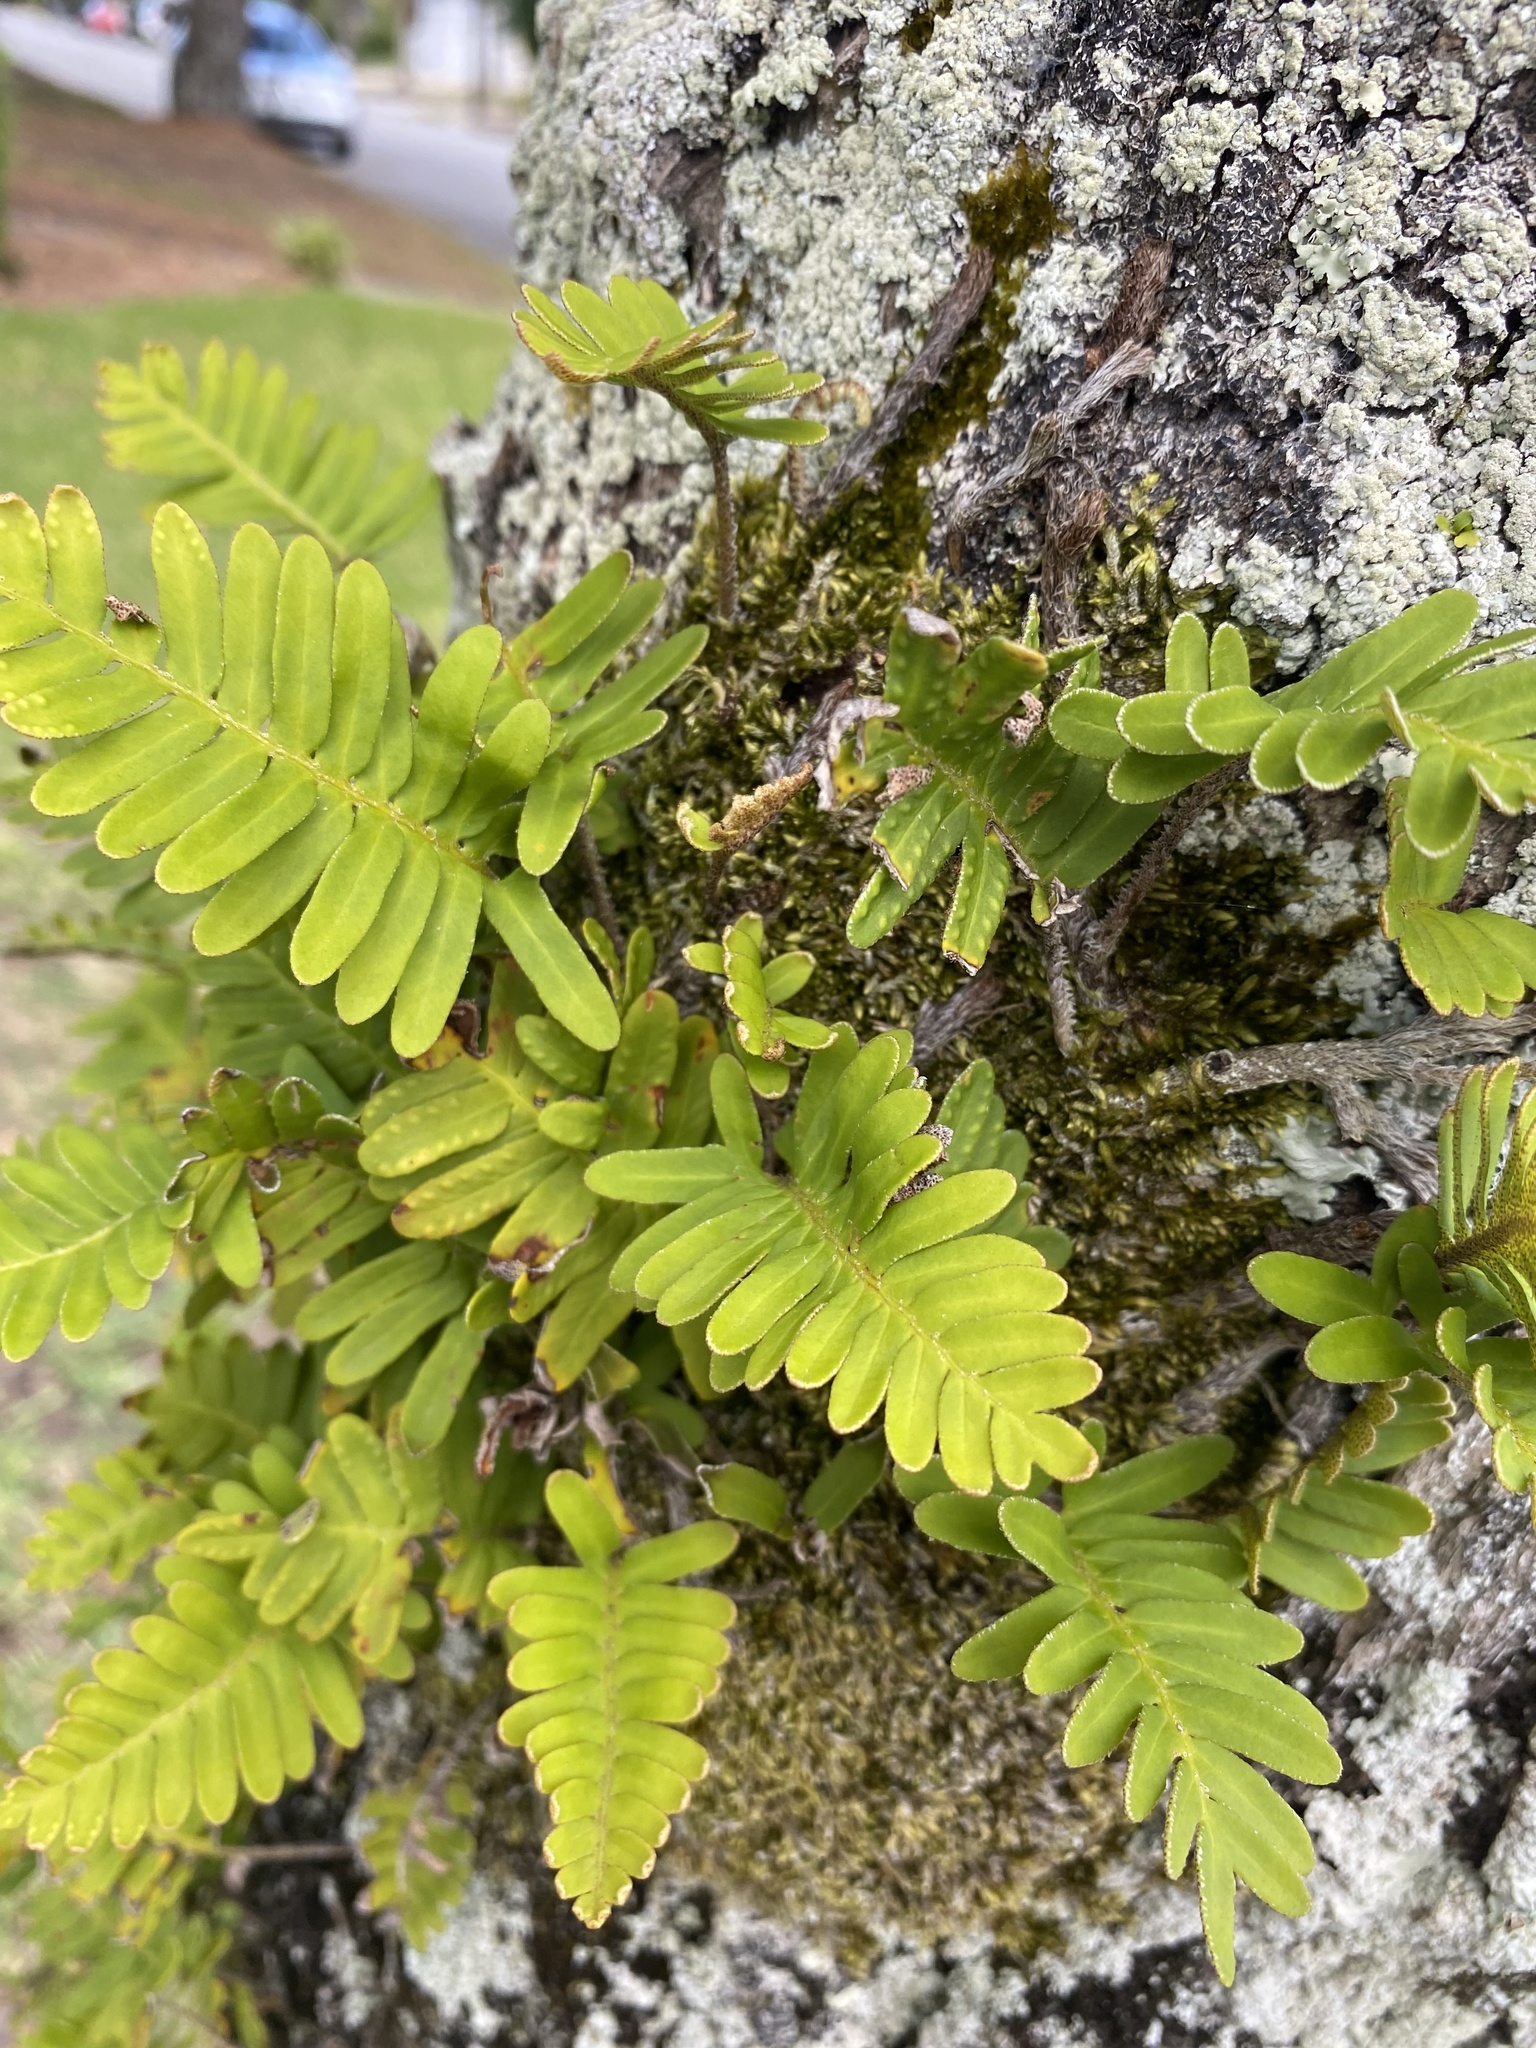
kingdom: Plantae
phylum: Tracheophyta
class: Polypodiopsida
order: Polypodiales
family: Polypodiaceae
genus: Pleopeltis
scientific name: Pleopeltis michauxiana
